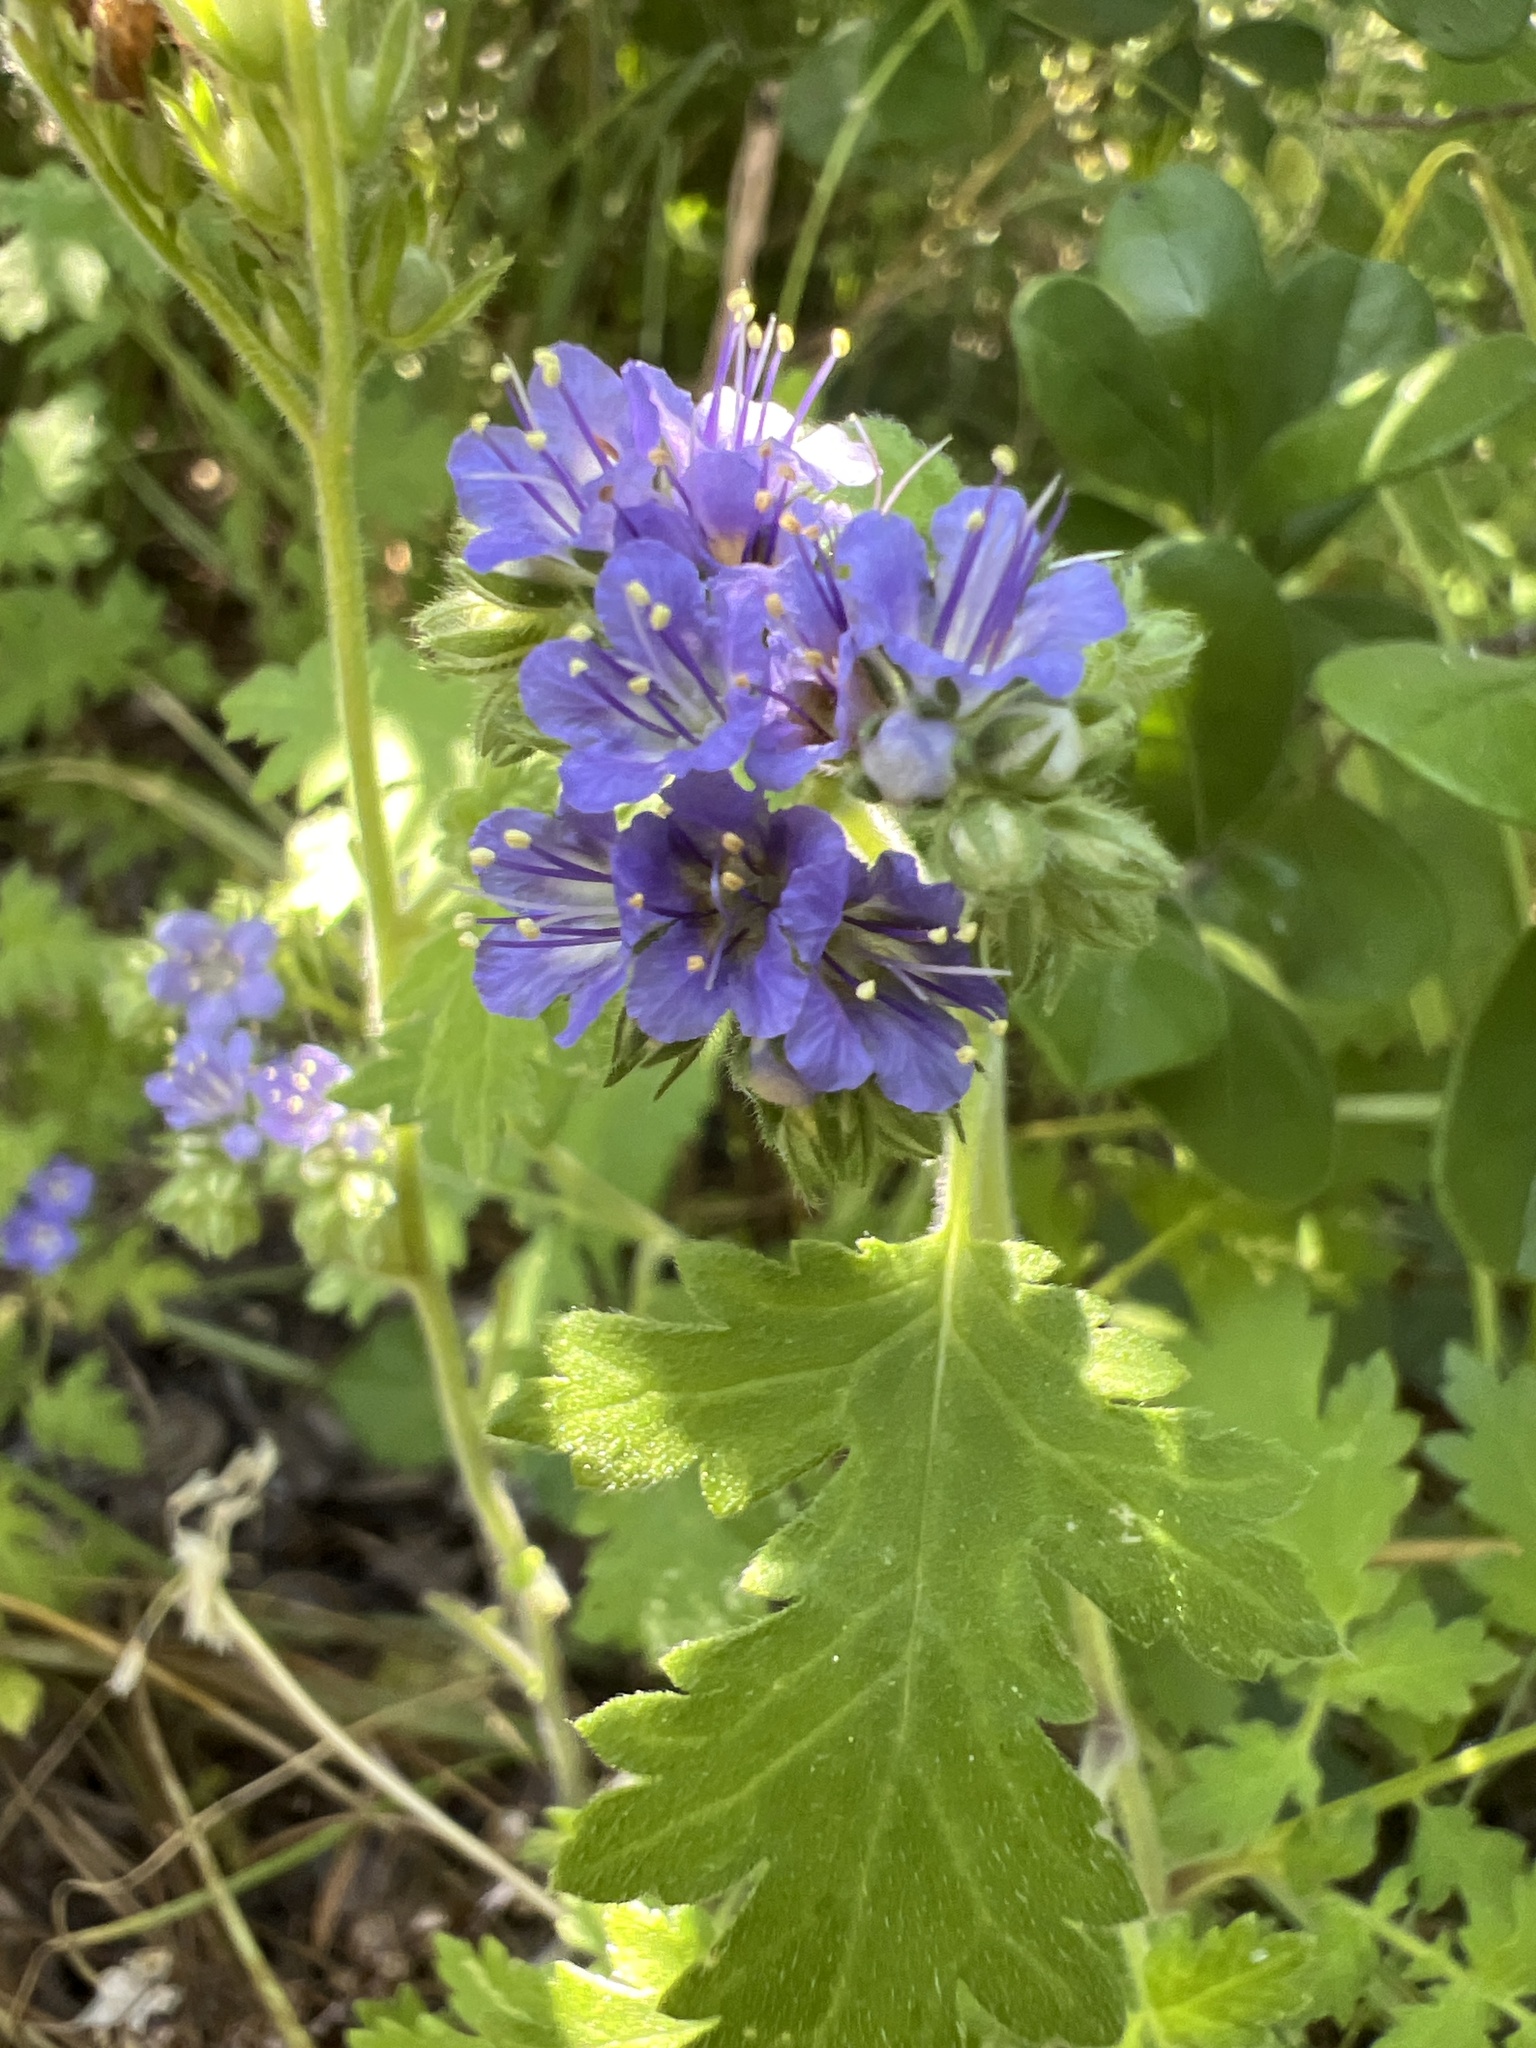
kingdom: Plantae
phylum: Tracheophyta
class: Magnoliopsida
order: Boraginales
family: Hydrophyllaceae
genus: Phacelia
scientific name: Phacelia congesta
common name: Blue curls
